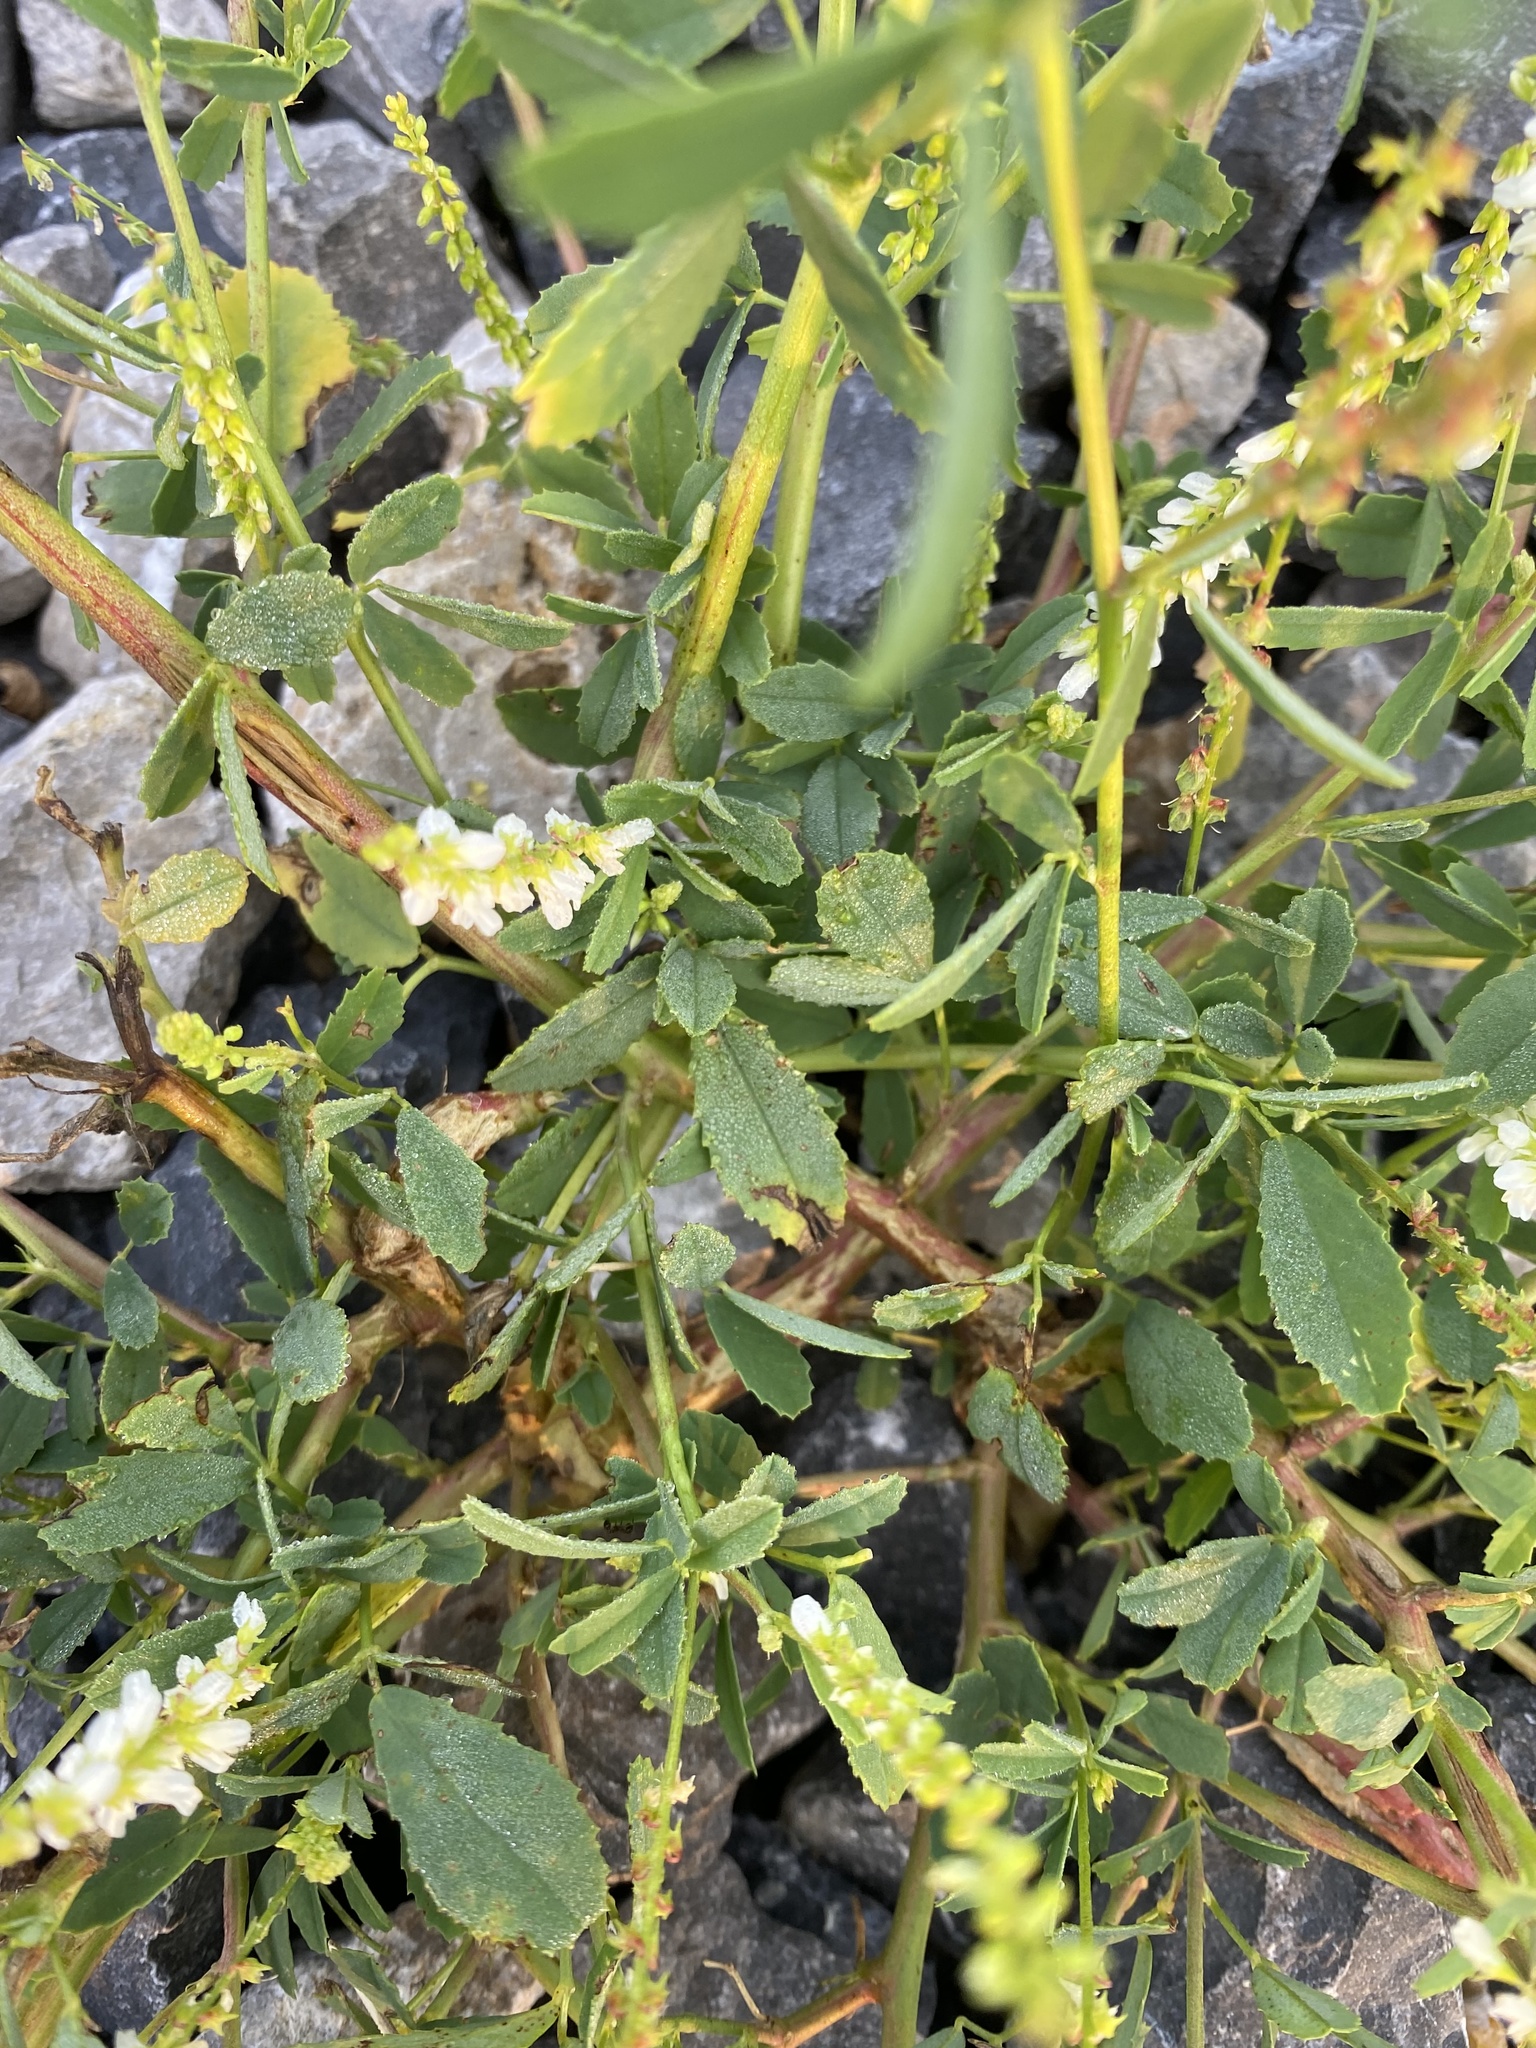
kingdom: Plantae
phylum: Tracheophyta
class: Magnoliopsida
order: Fabales
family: Fabaceae
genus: Melilotus
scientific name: Melilotus albus
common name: White melilot
